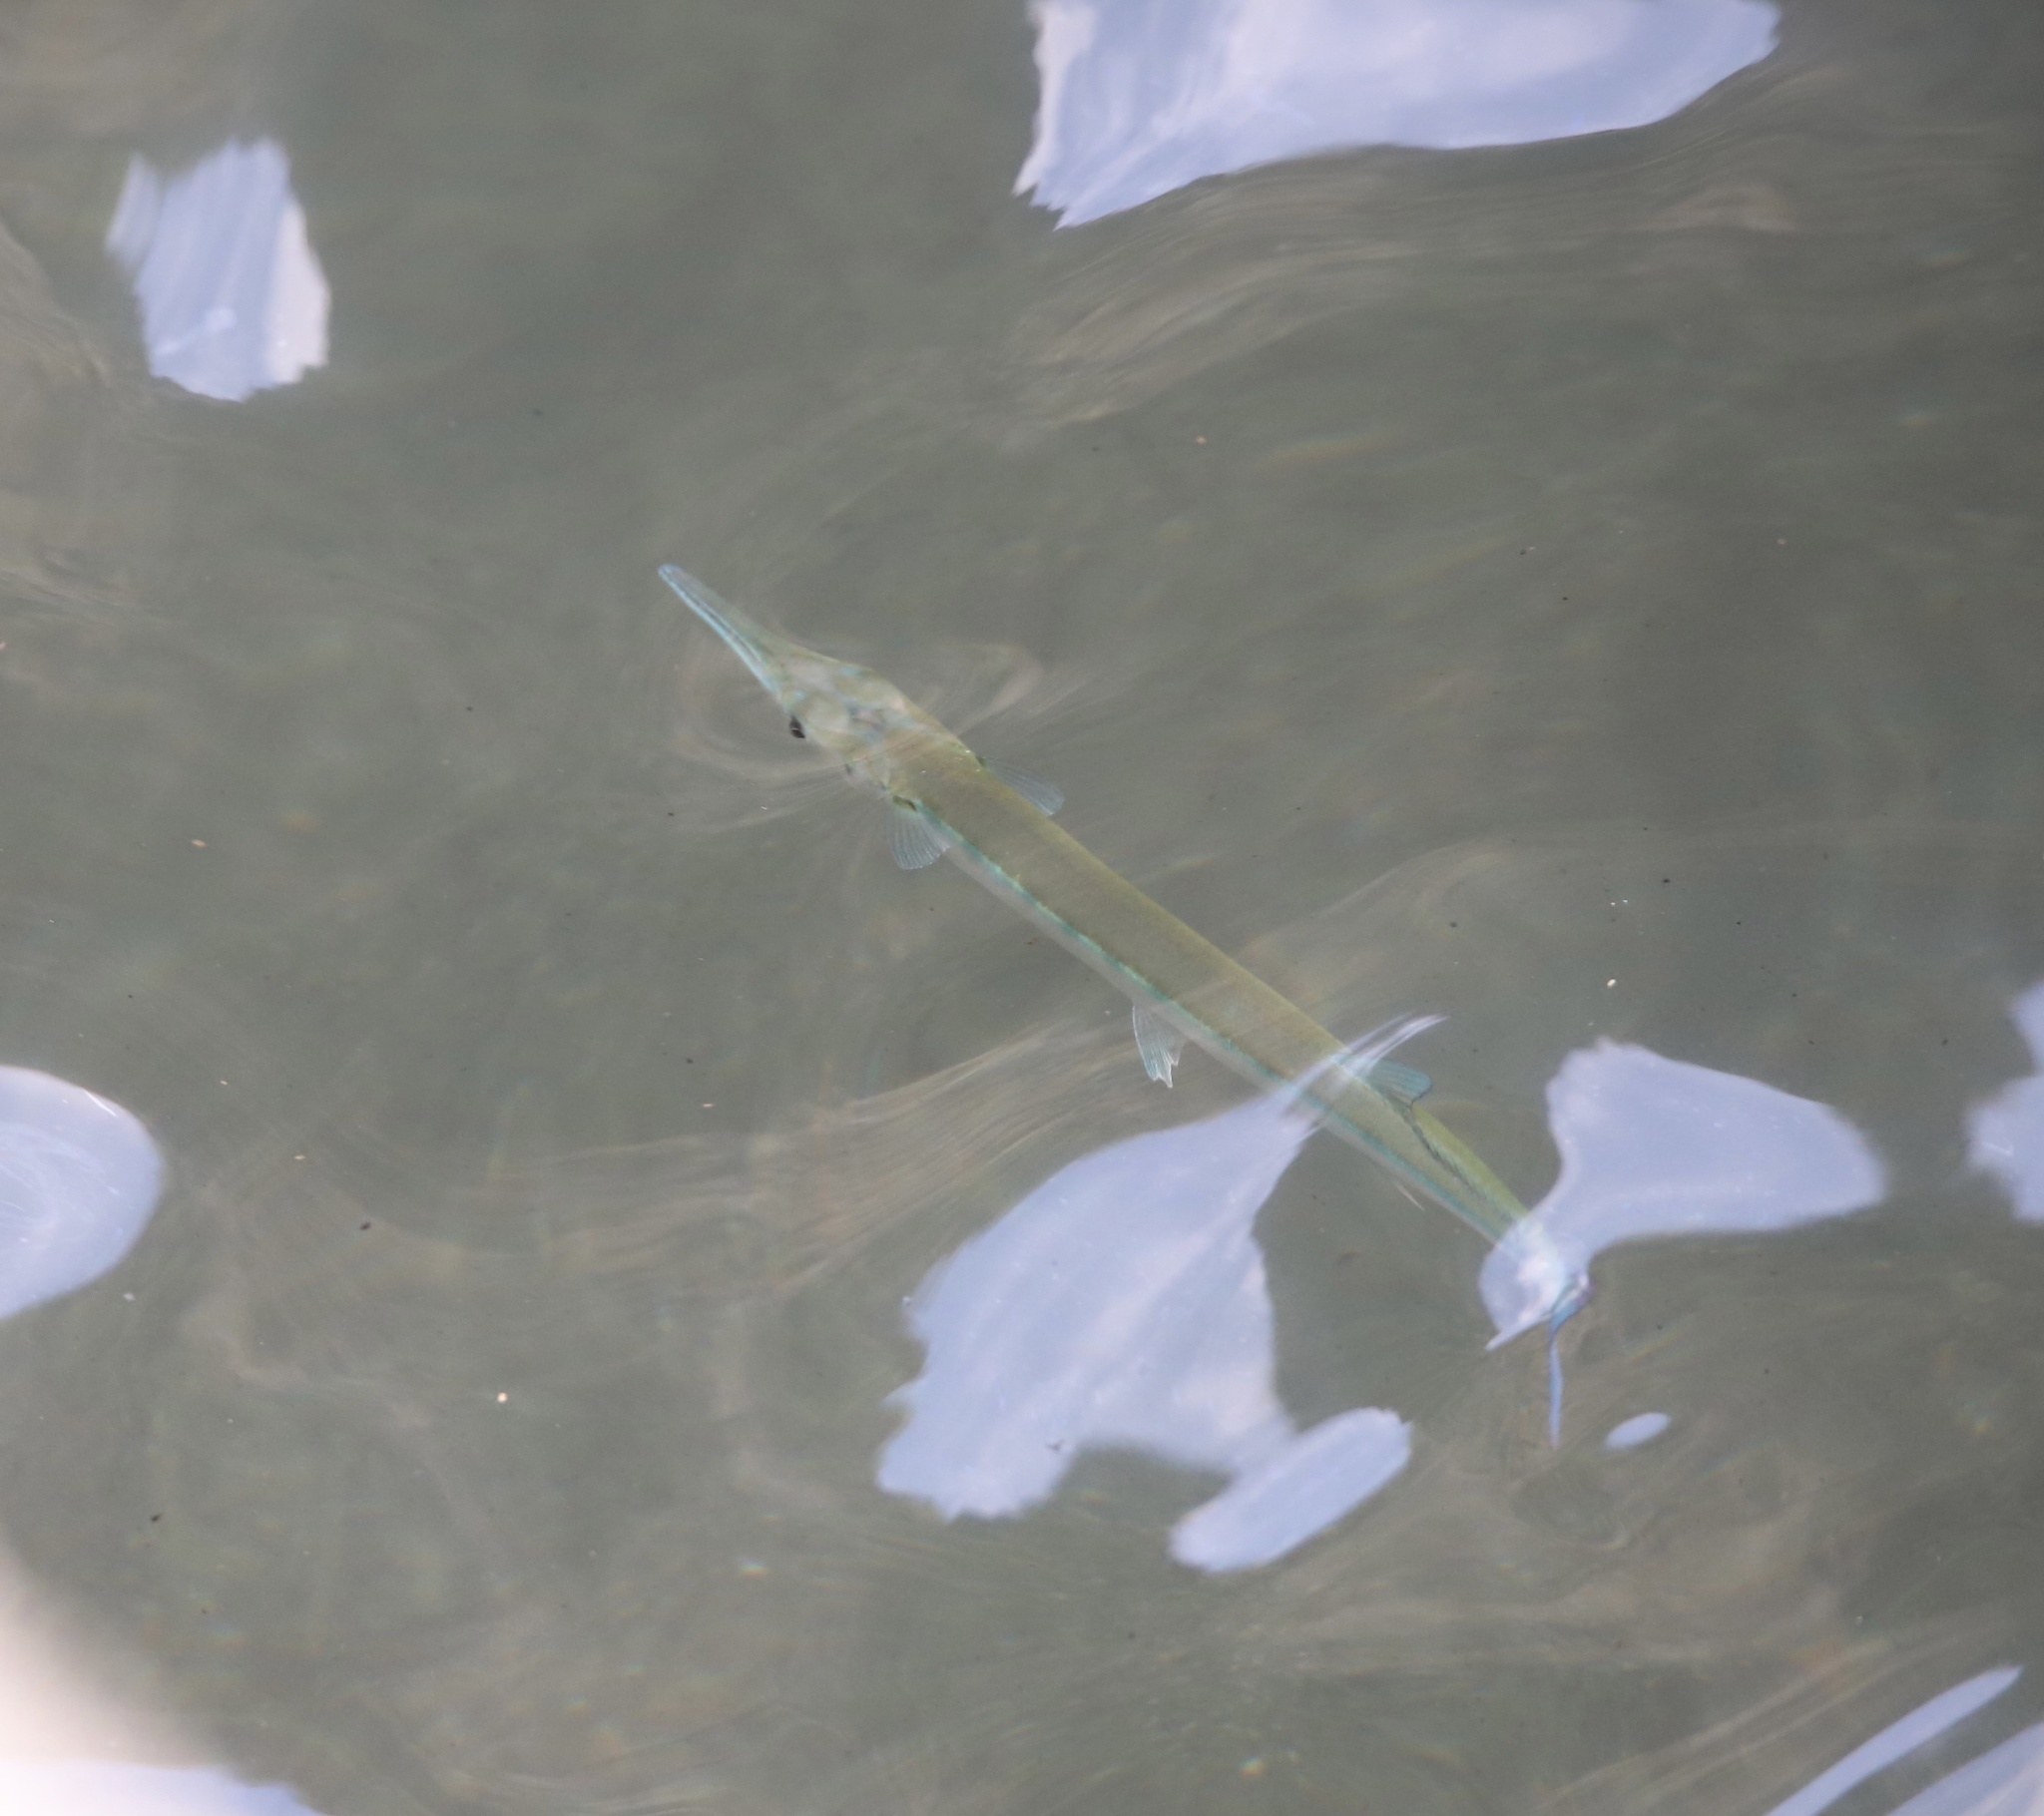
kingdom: Animalia
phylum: Chordata
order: Beloniformes
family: Belonidae
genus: Tylosurus
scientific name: Tylosurus crocodilus
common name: Houndfish
